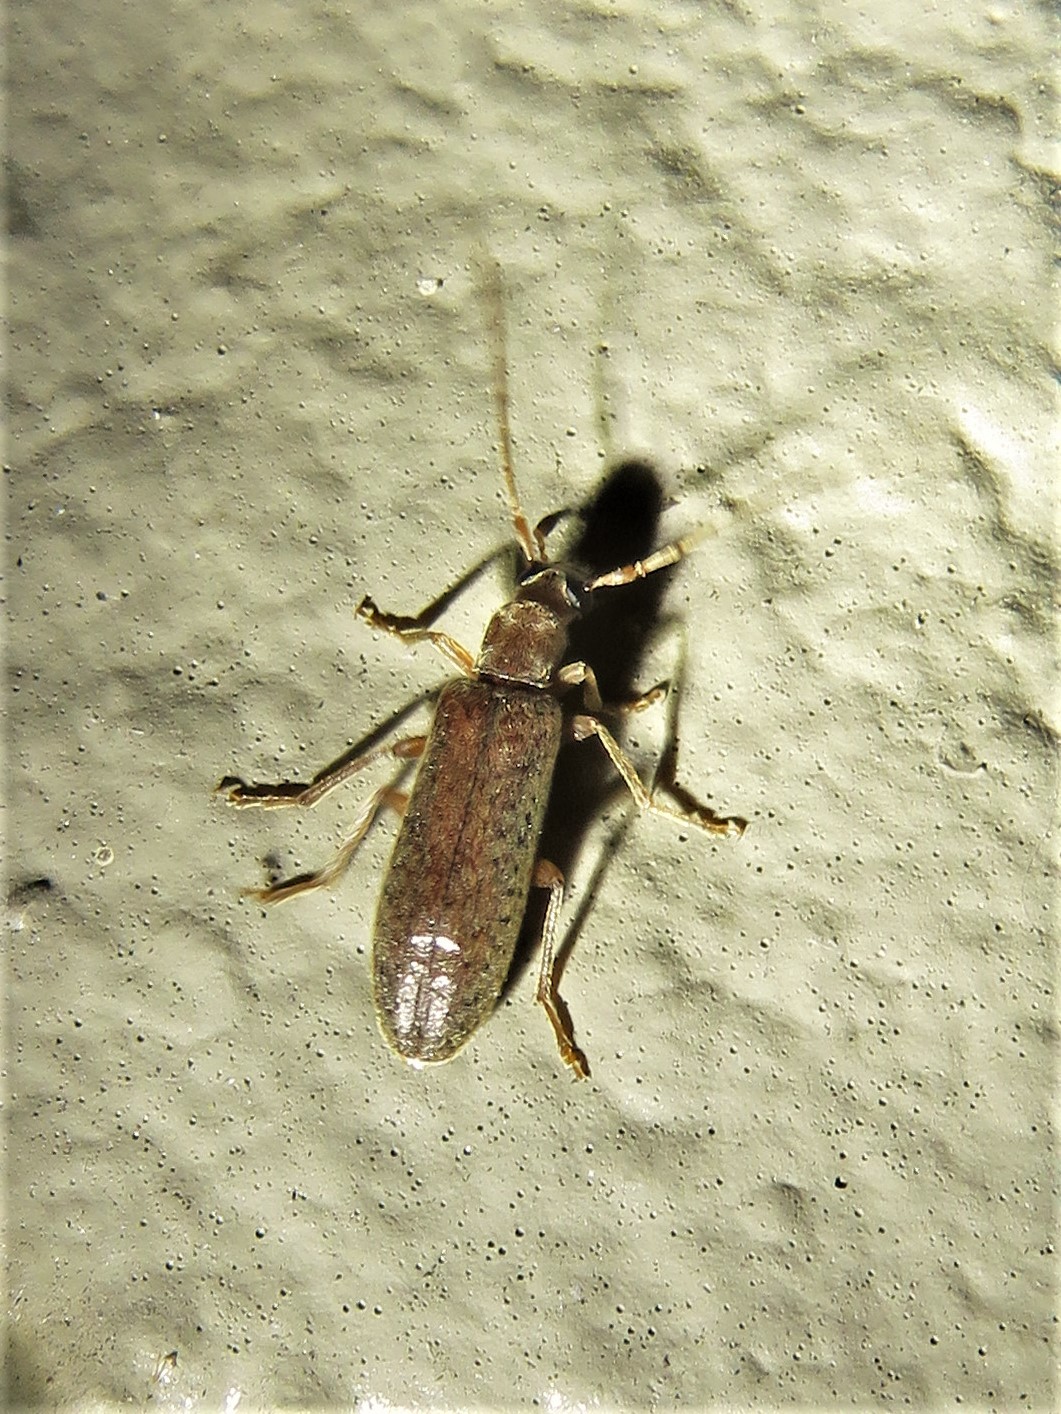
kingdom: Animalia
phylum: Arthropoda
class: Insecta
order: Coleoptera
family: Oedemeridae
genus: Sparedrus
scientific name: Sparedrus aspersus
